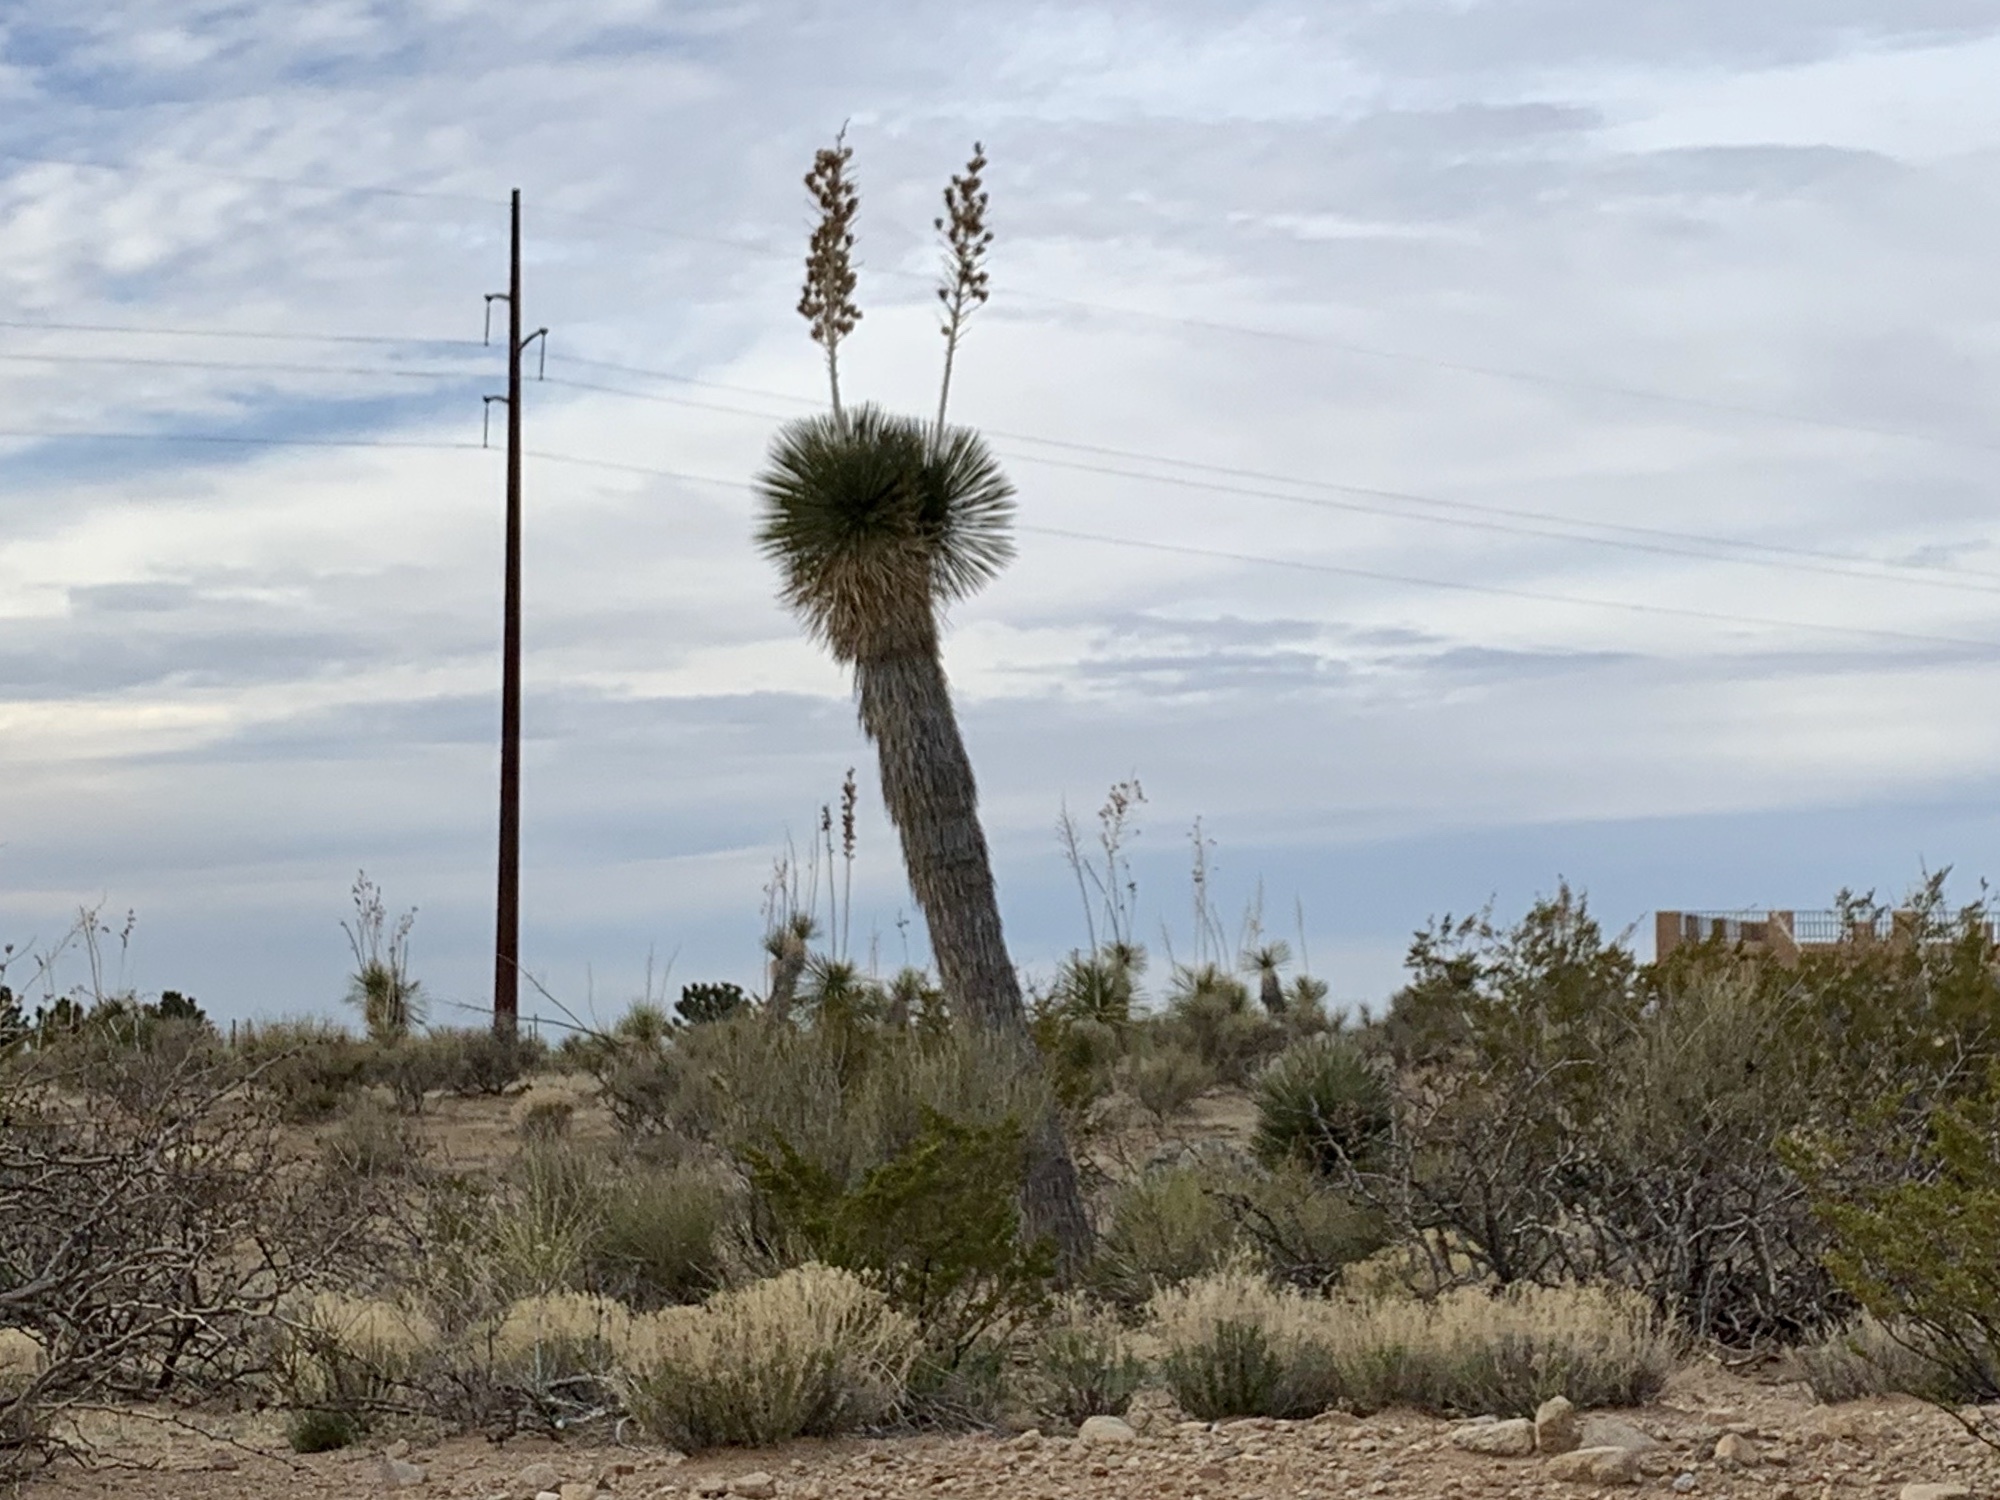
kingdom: Plantae
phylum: Tracheophyta
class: Liliopsida
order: Asparagales
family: Asparagaceae
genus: Yucca
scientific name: Yucca elata
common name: Palmella
